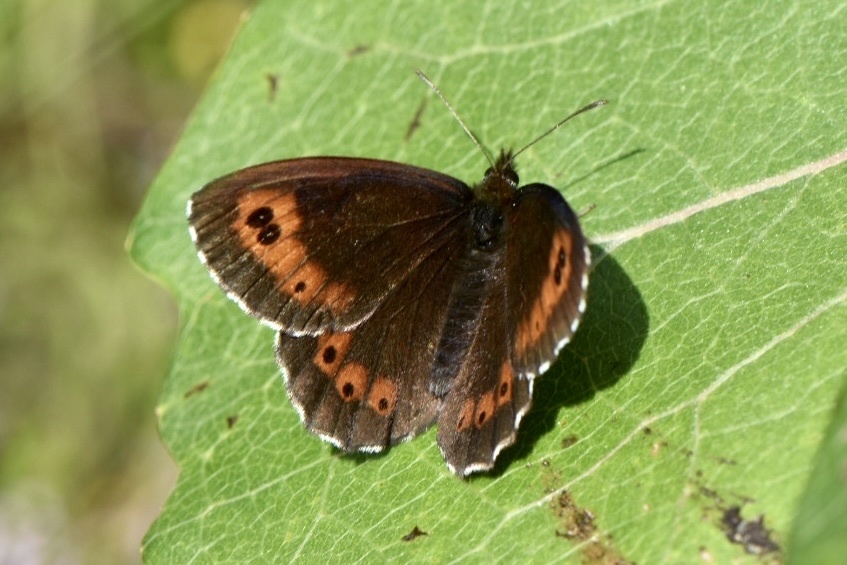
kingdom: Animalia
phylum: Arthropoda
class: Insecta
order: Lepidoptera
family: Nymphalidae
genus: Erebia
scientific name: Erebia ligea
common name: Arran brown
